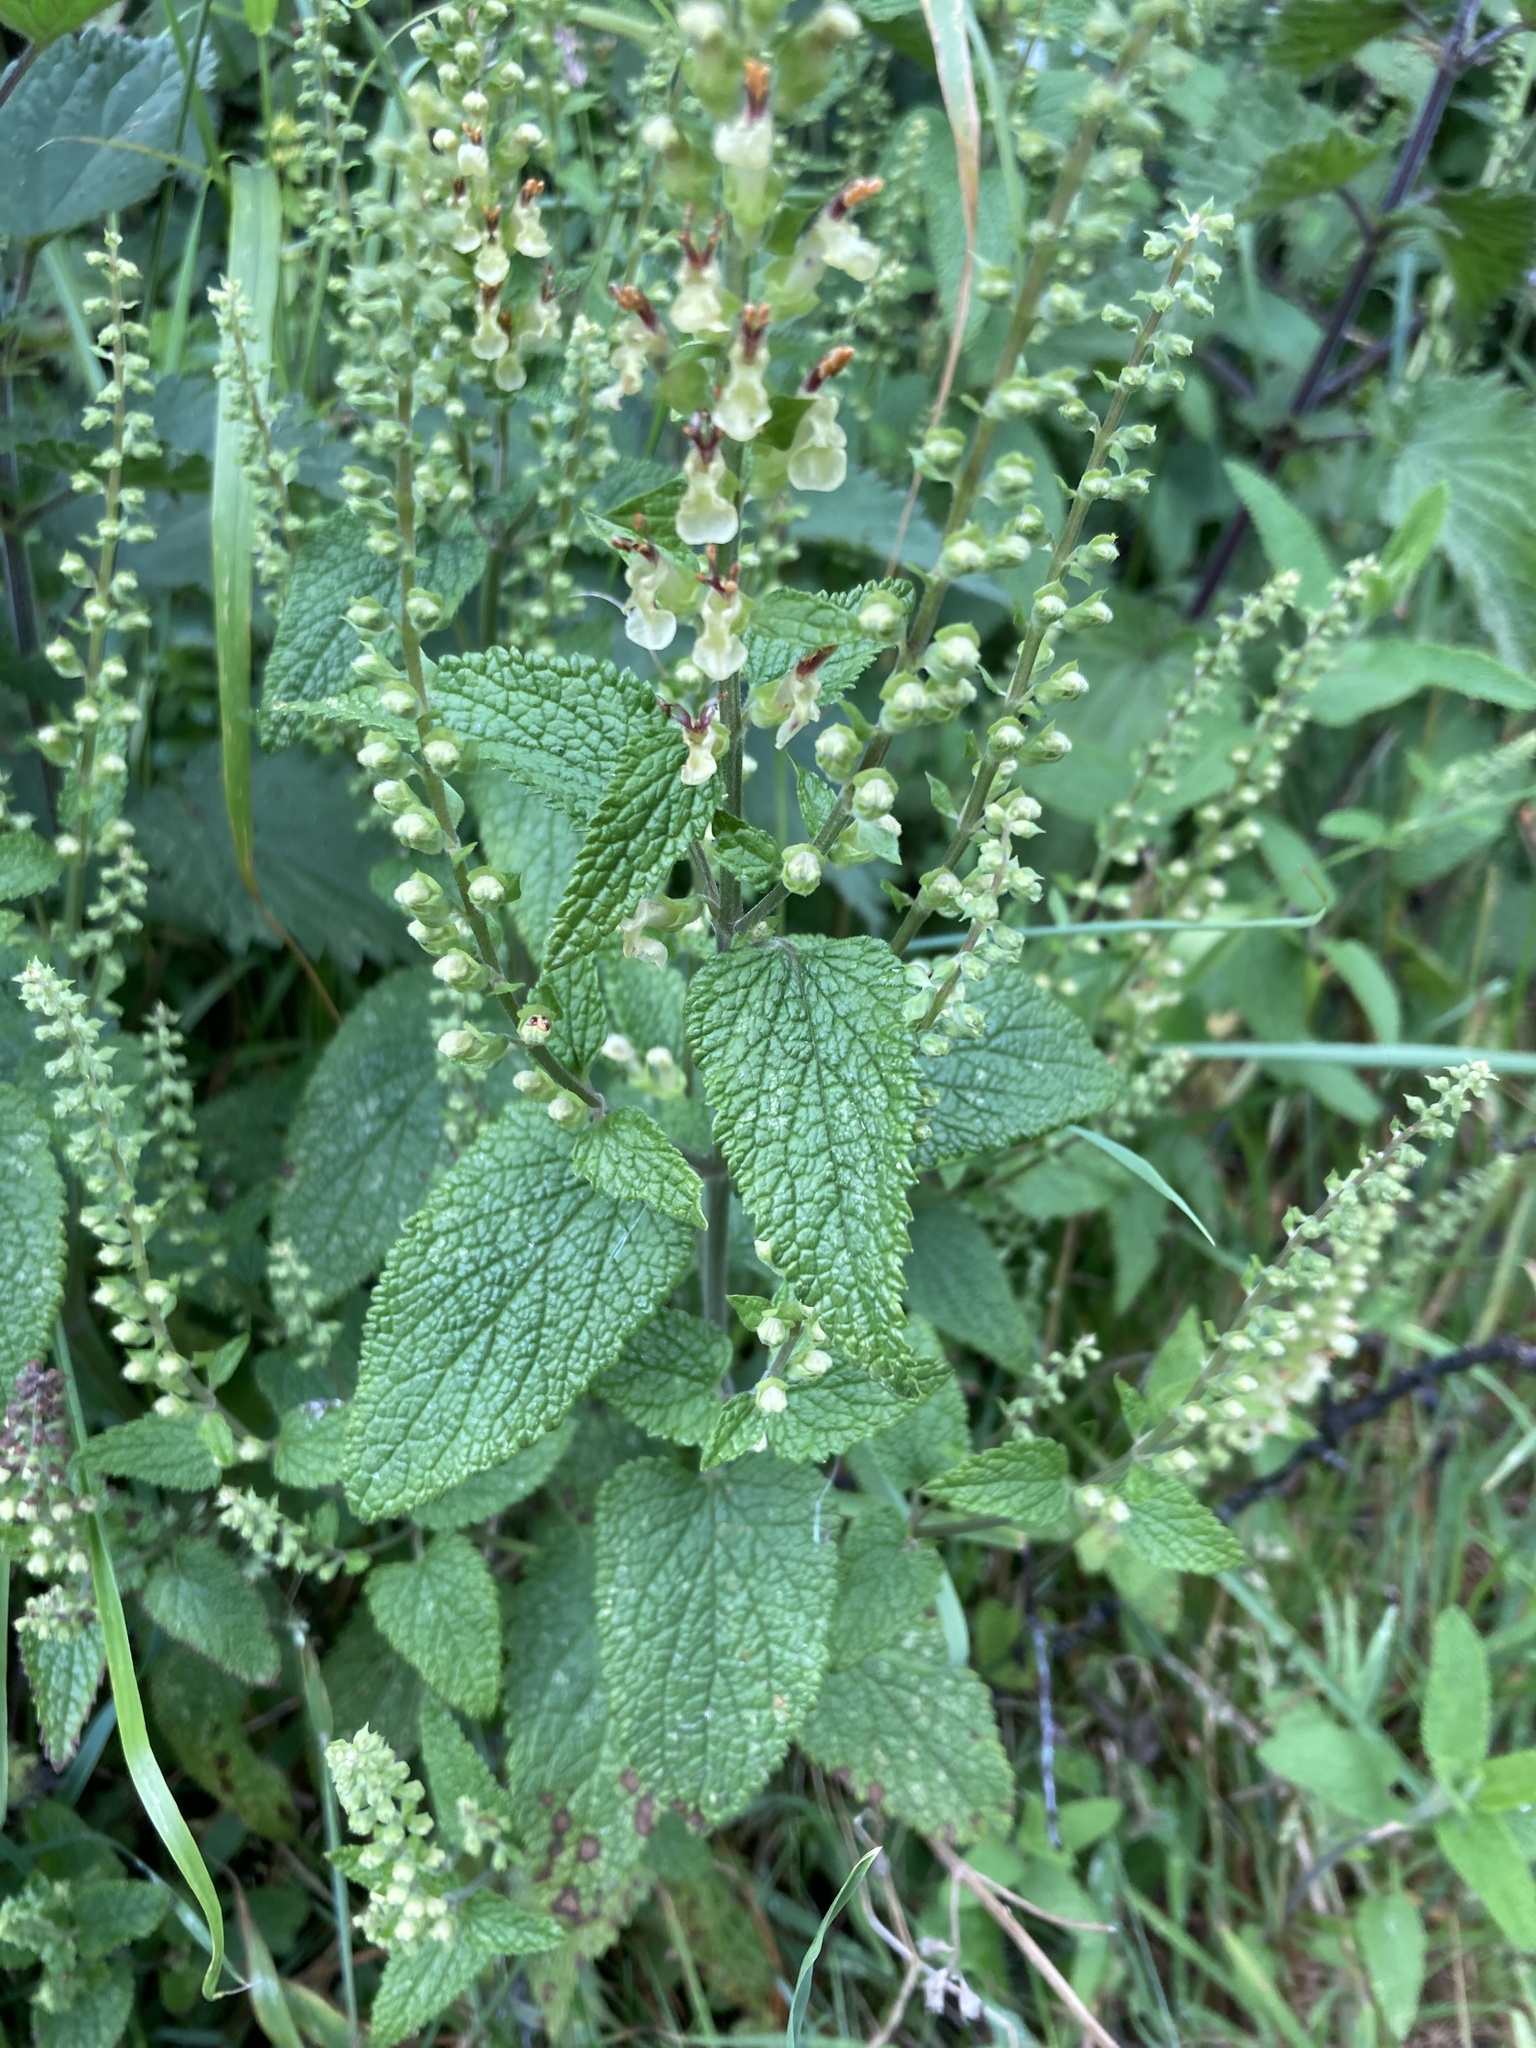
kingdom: Plantae
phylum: Tracheophyta
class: Magnoliopsida
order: Lamiales
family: Lamiaceae
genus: Teucrium
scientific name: Teucrium scorodonia
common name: Woodland germander
